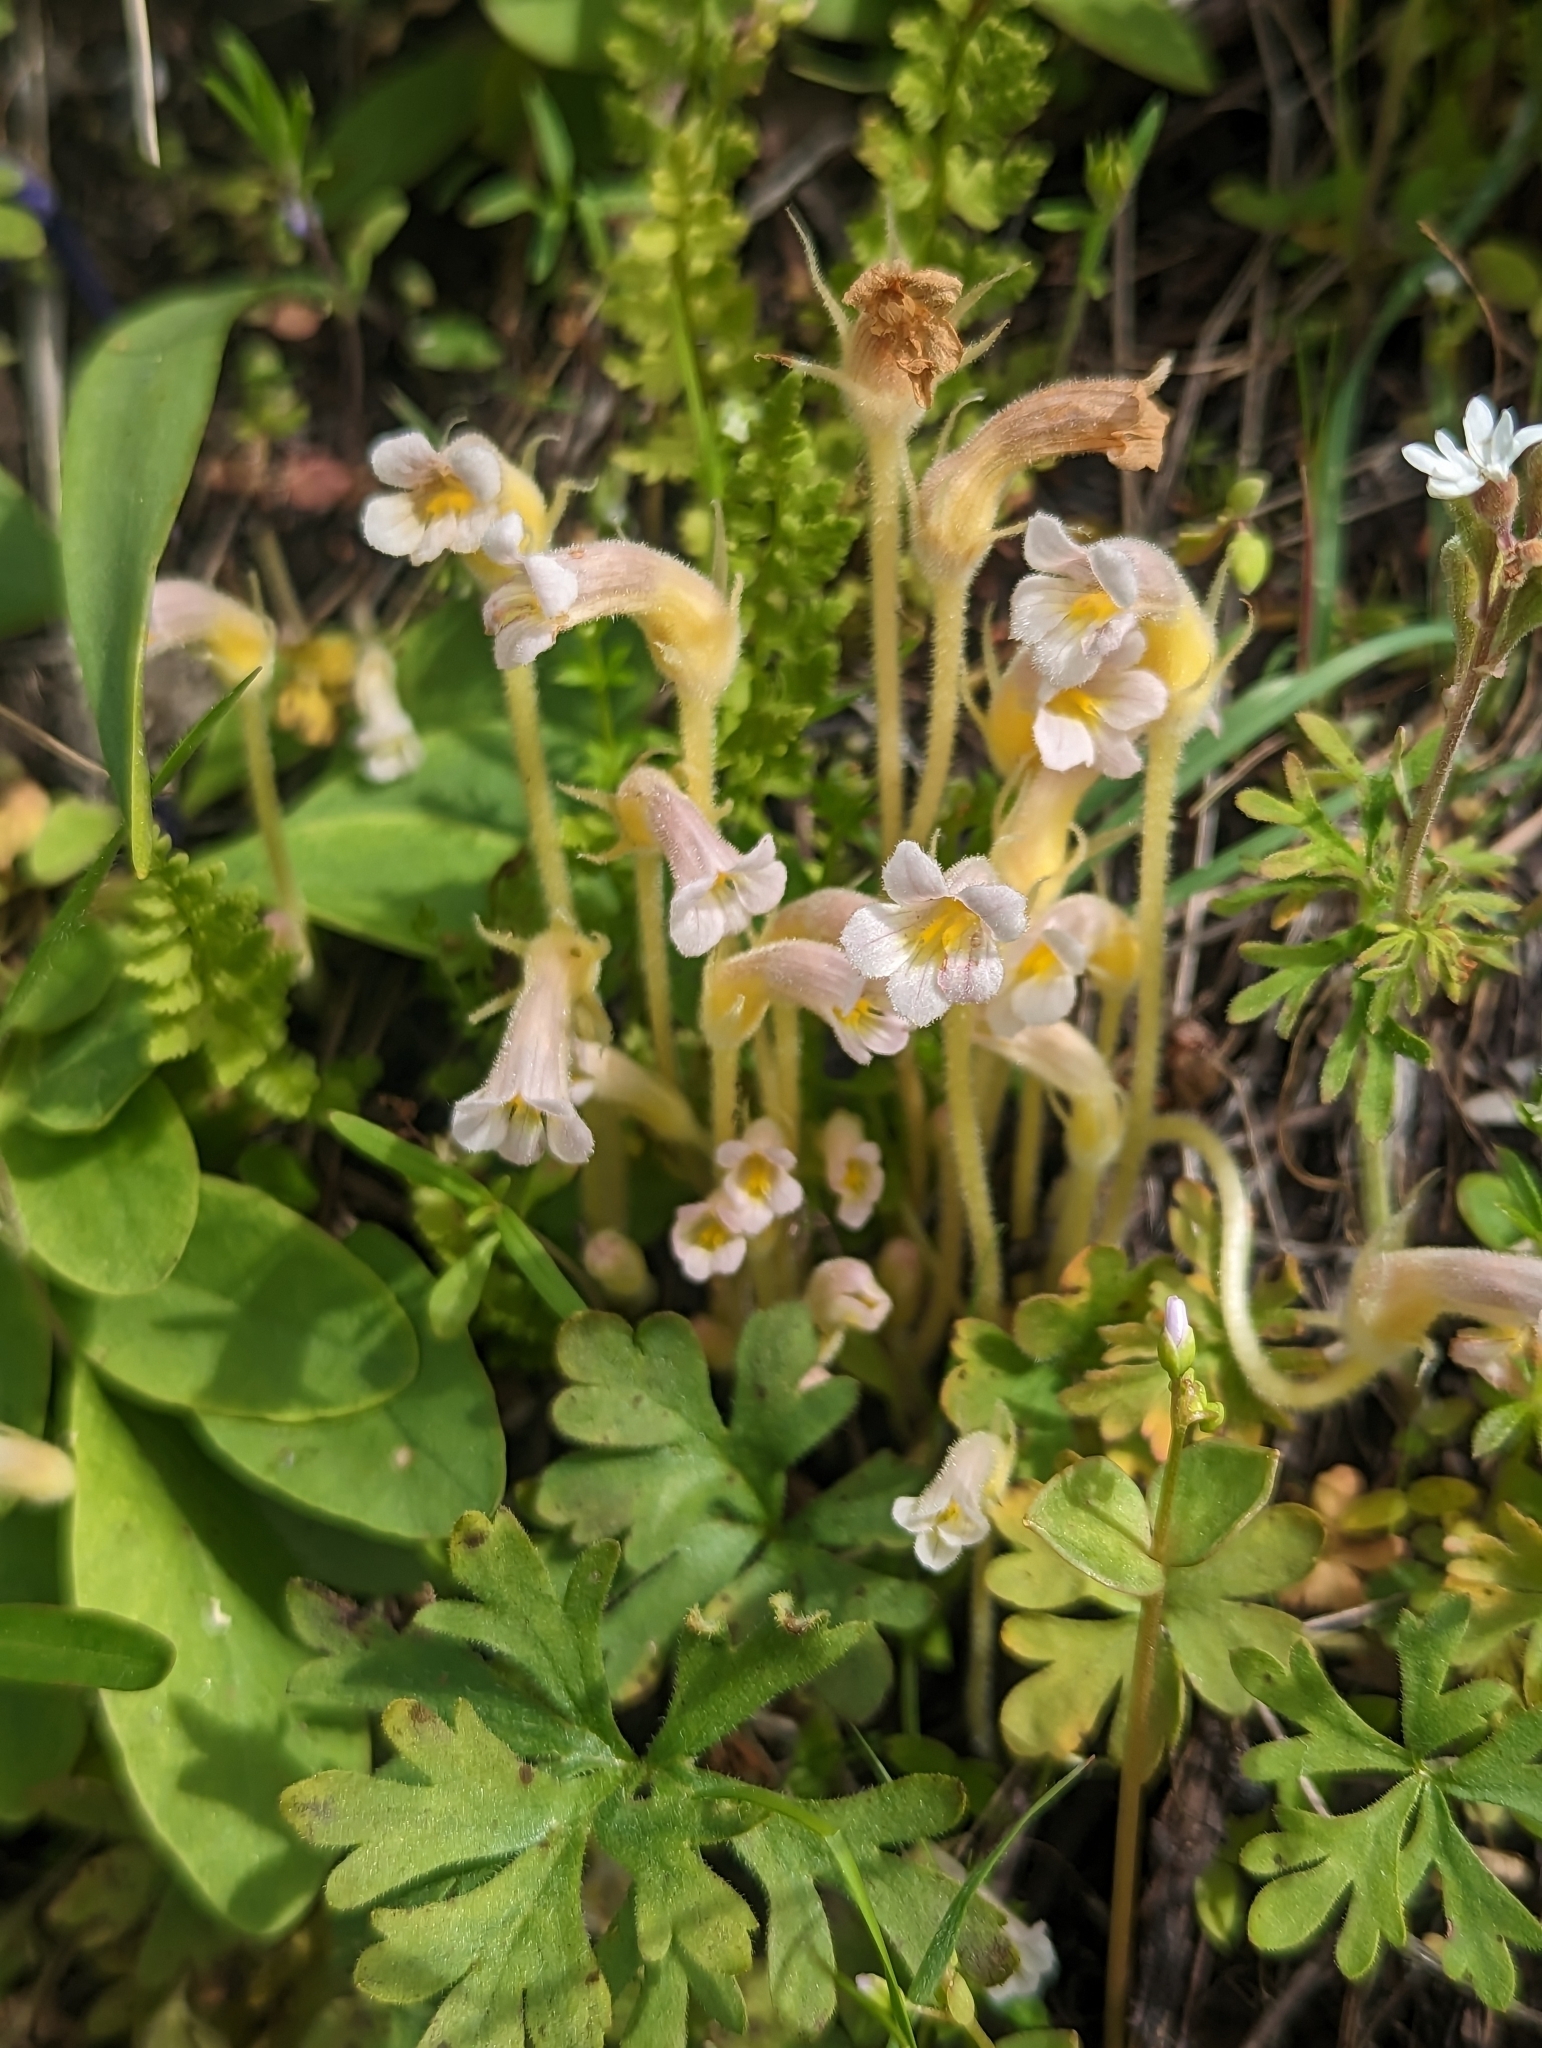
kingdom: Plantae
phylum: Tracheophyta
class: Magnoliopsida
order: Lamiales
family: Orobanchaceae
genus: Aphyllon
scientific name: Aphyllon uniflorum
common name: One-flowered broomrape
